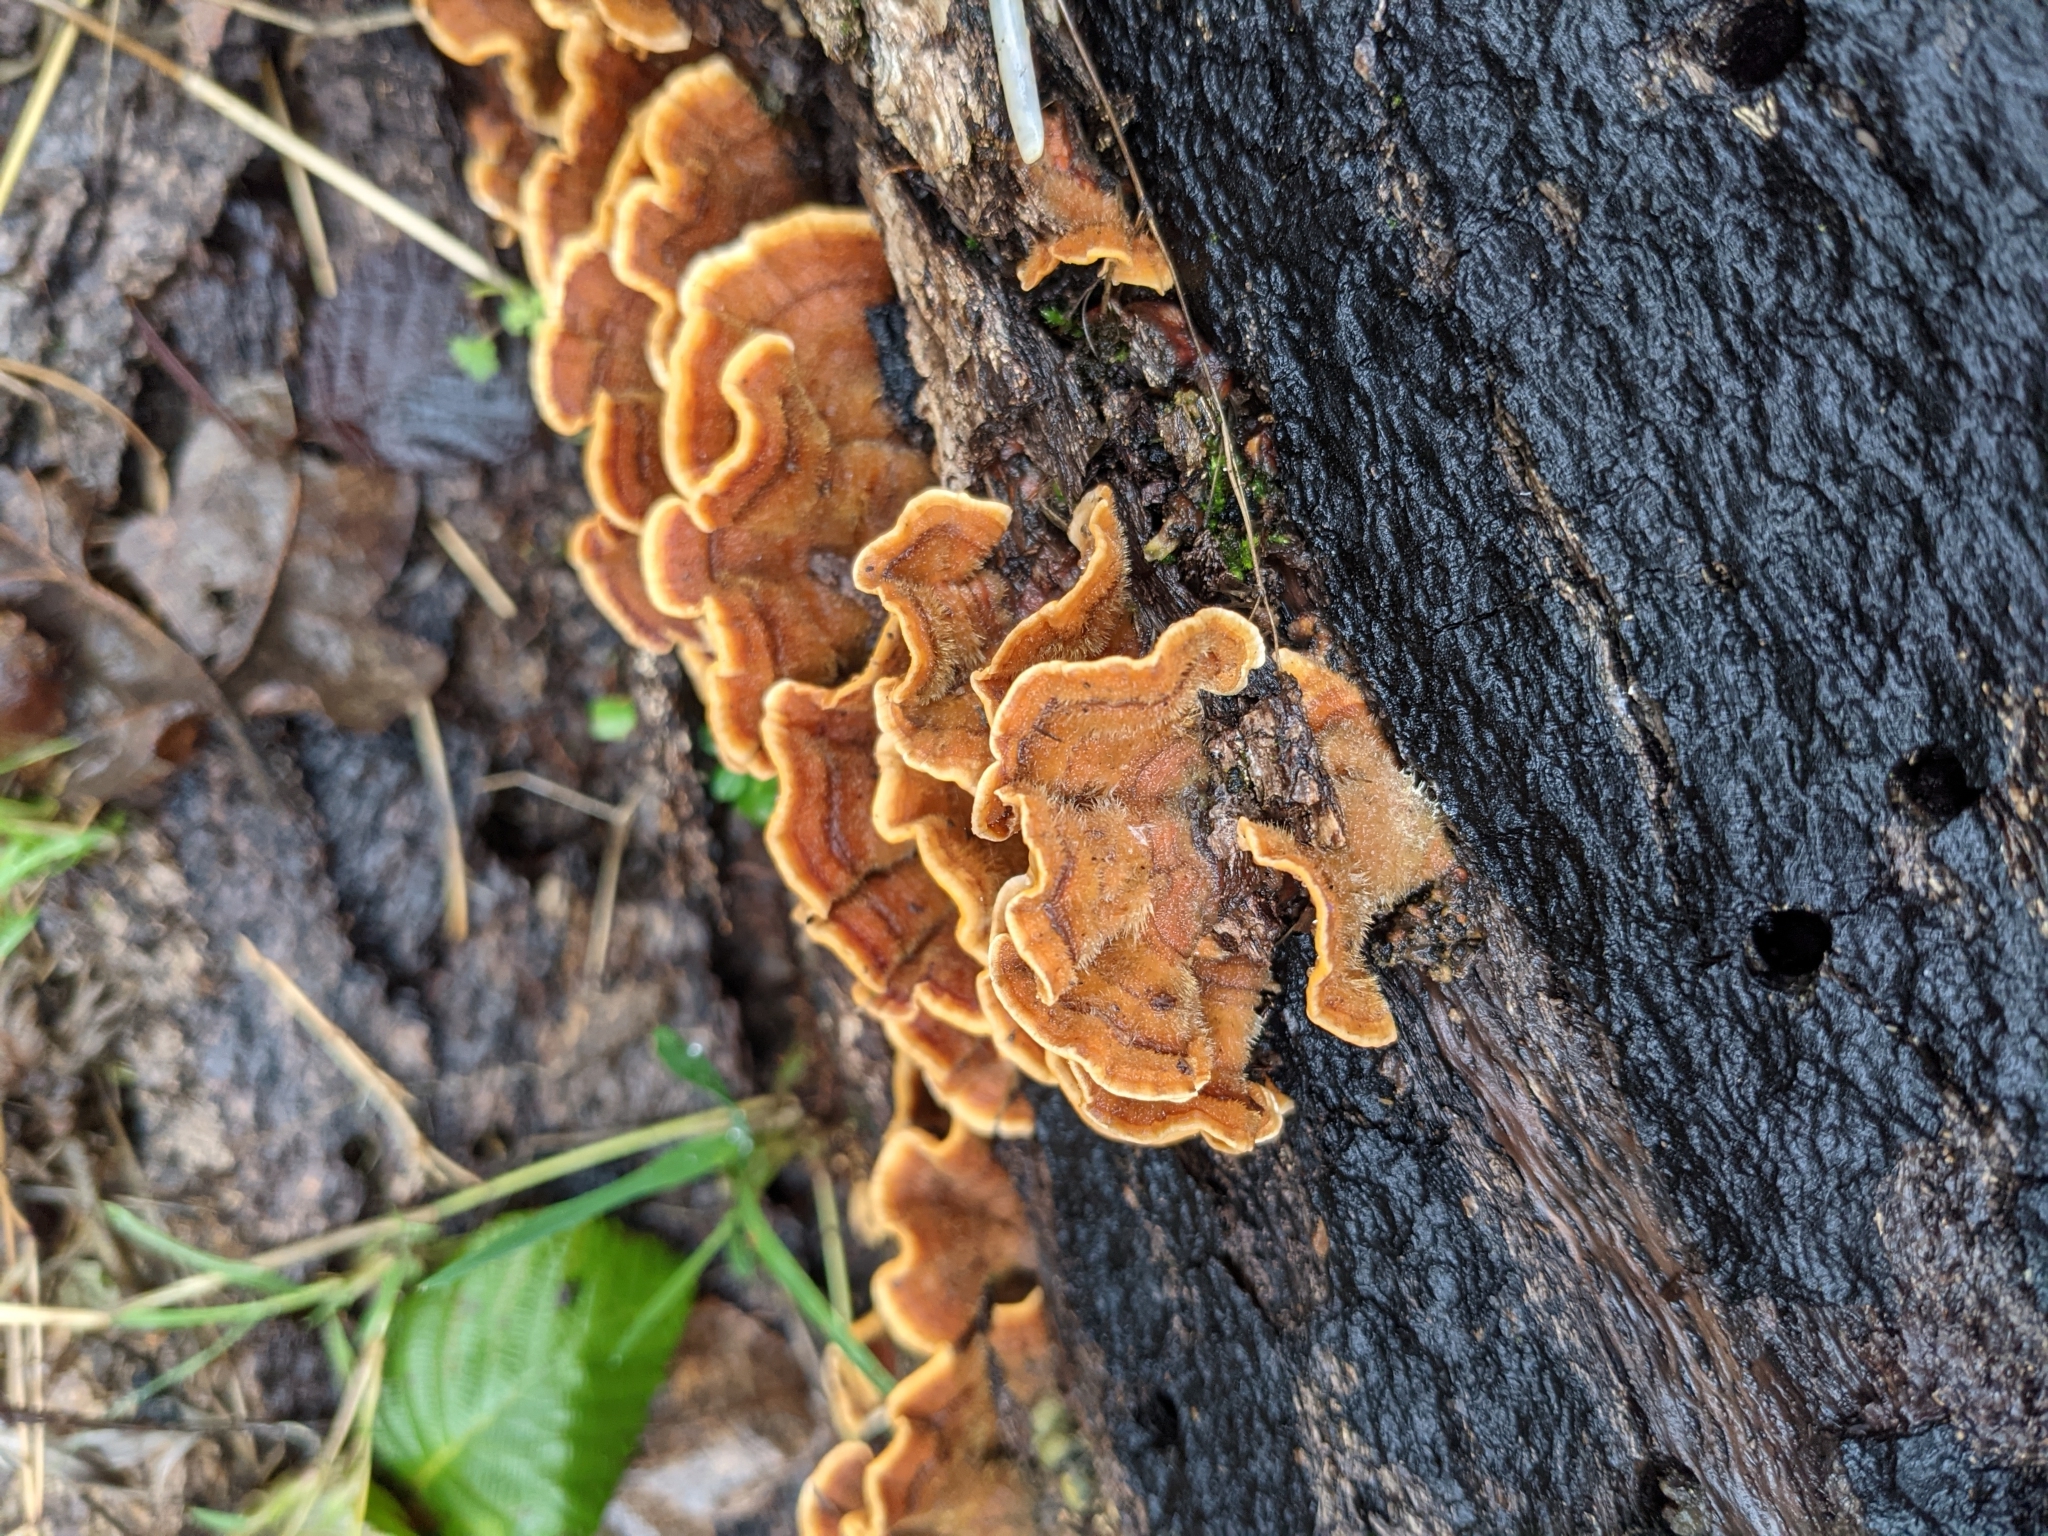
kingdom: Fungi
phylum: Basidiomycota
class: Agaricomycetes
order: Russulales
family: Stereaceae
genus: Stereum
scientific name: Stereum hirsutum
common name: Hairy curtain crust
